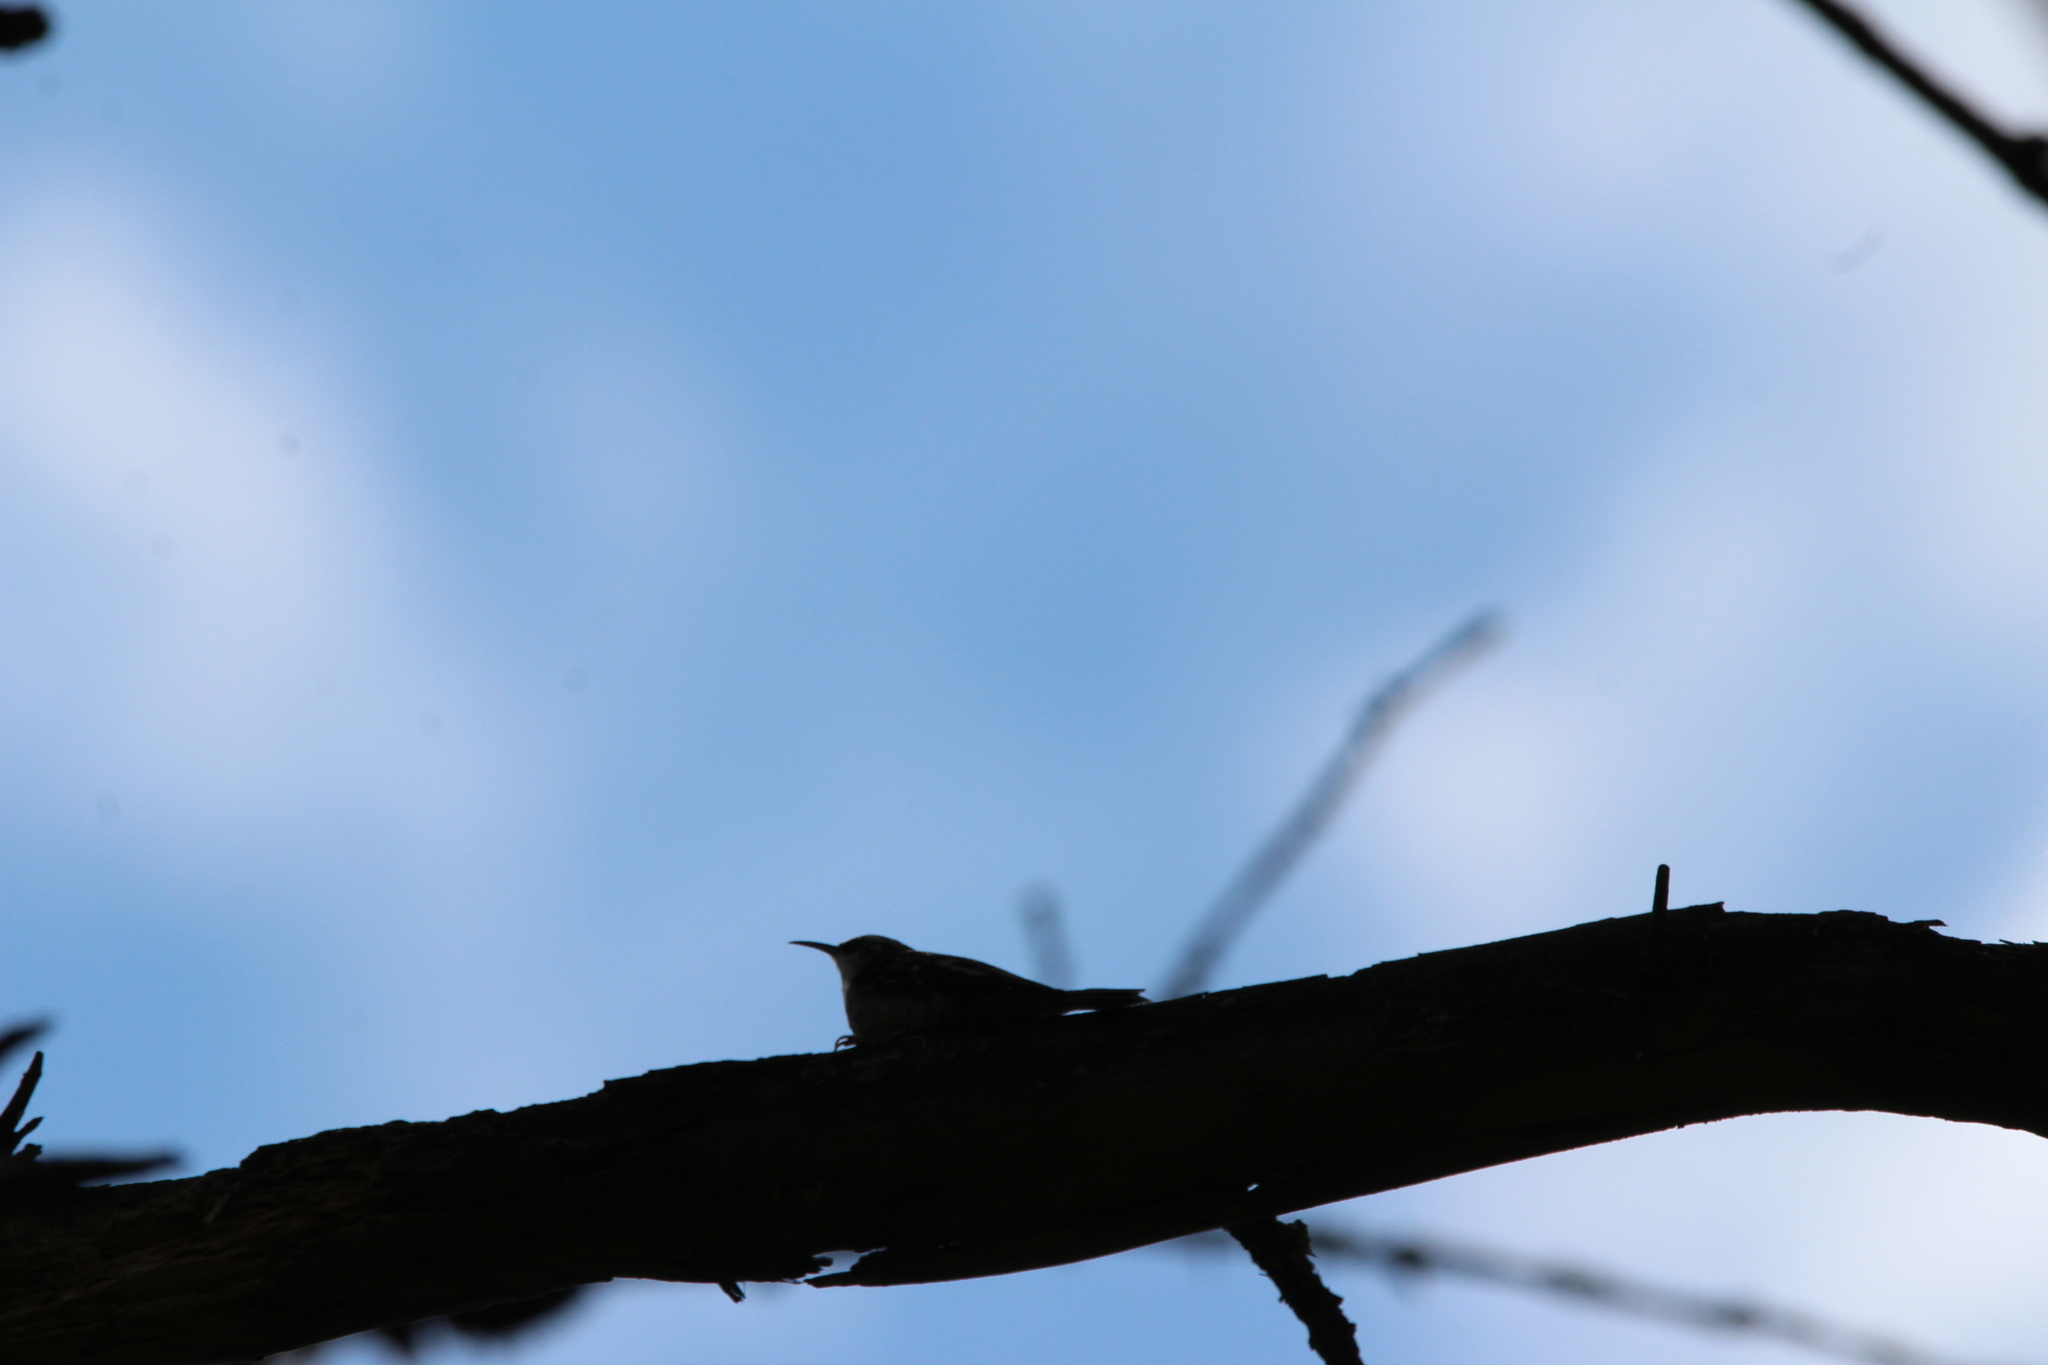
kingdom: Animalia
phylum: Chordata
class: Aves
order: Passeriformes
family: Certhiidae
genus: Certhia
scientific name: Certhia americana
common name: Brown creeper
